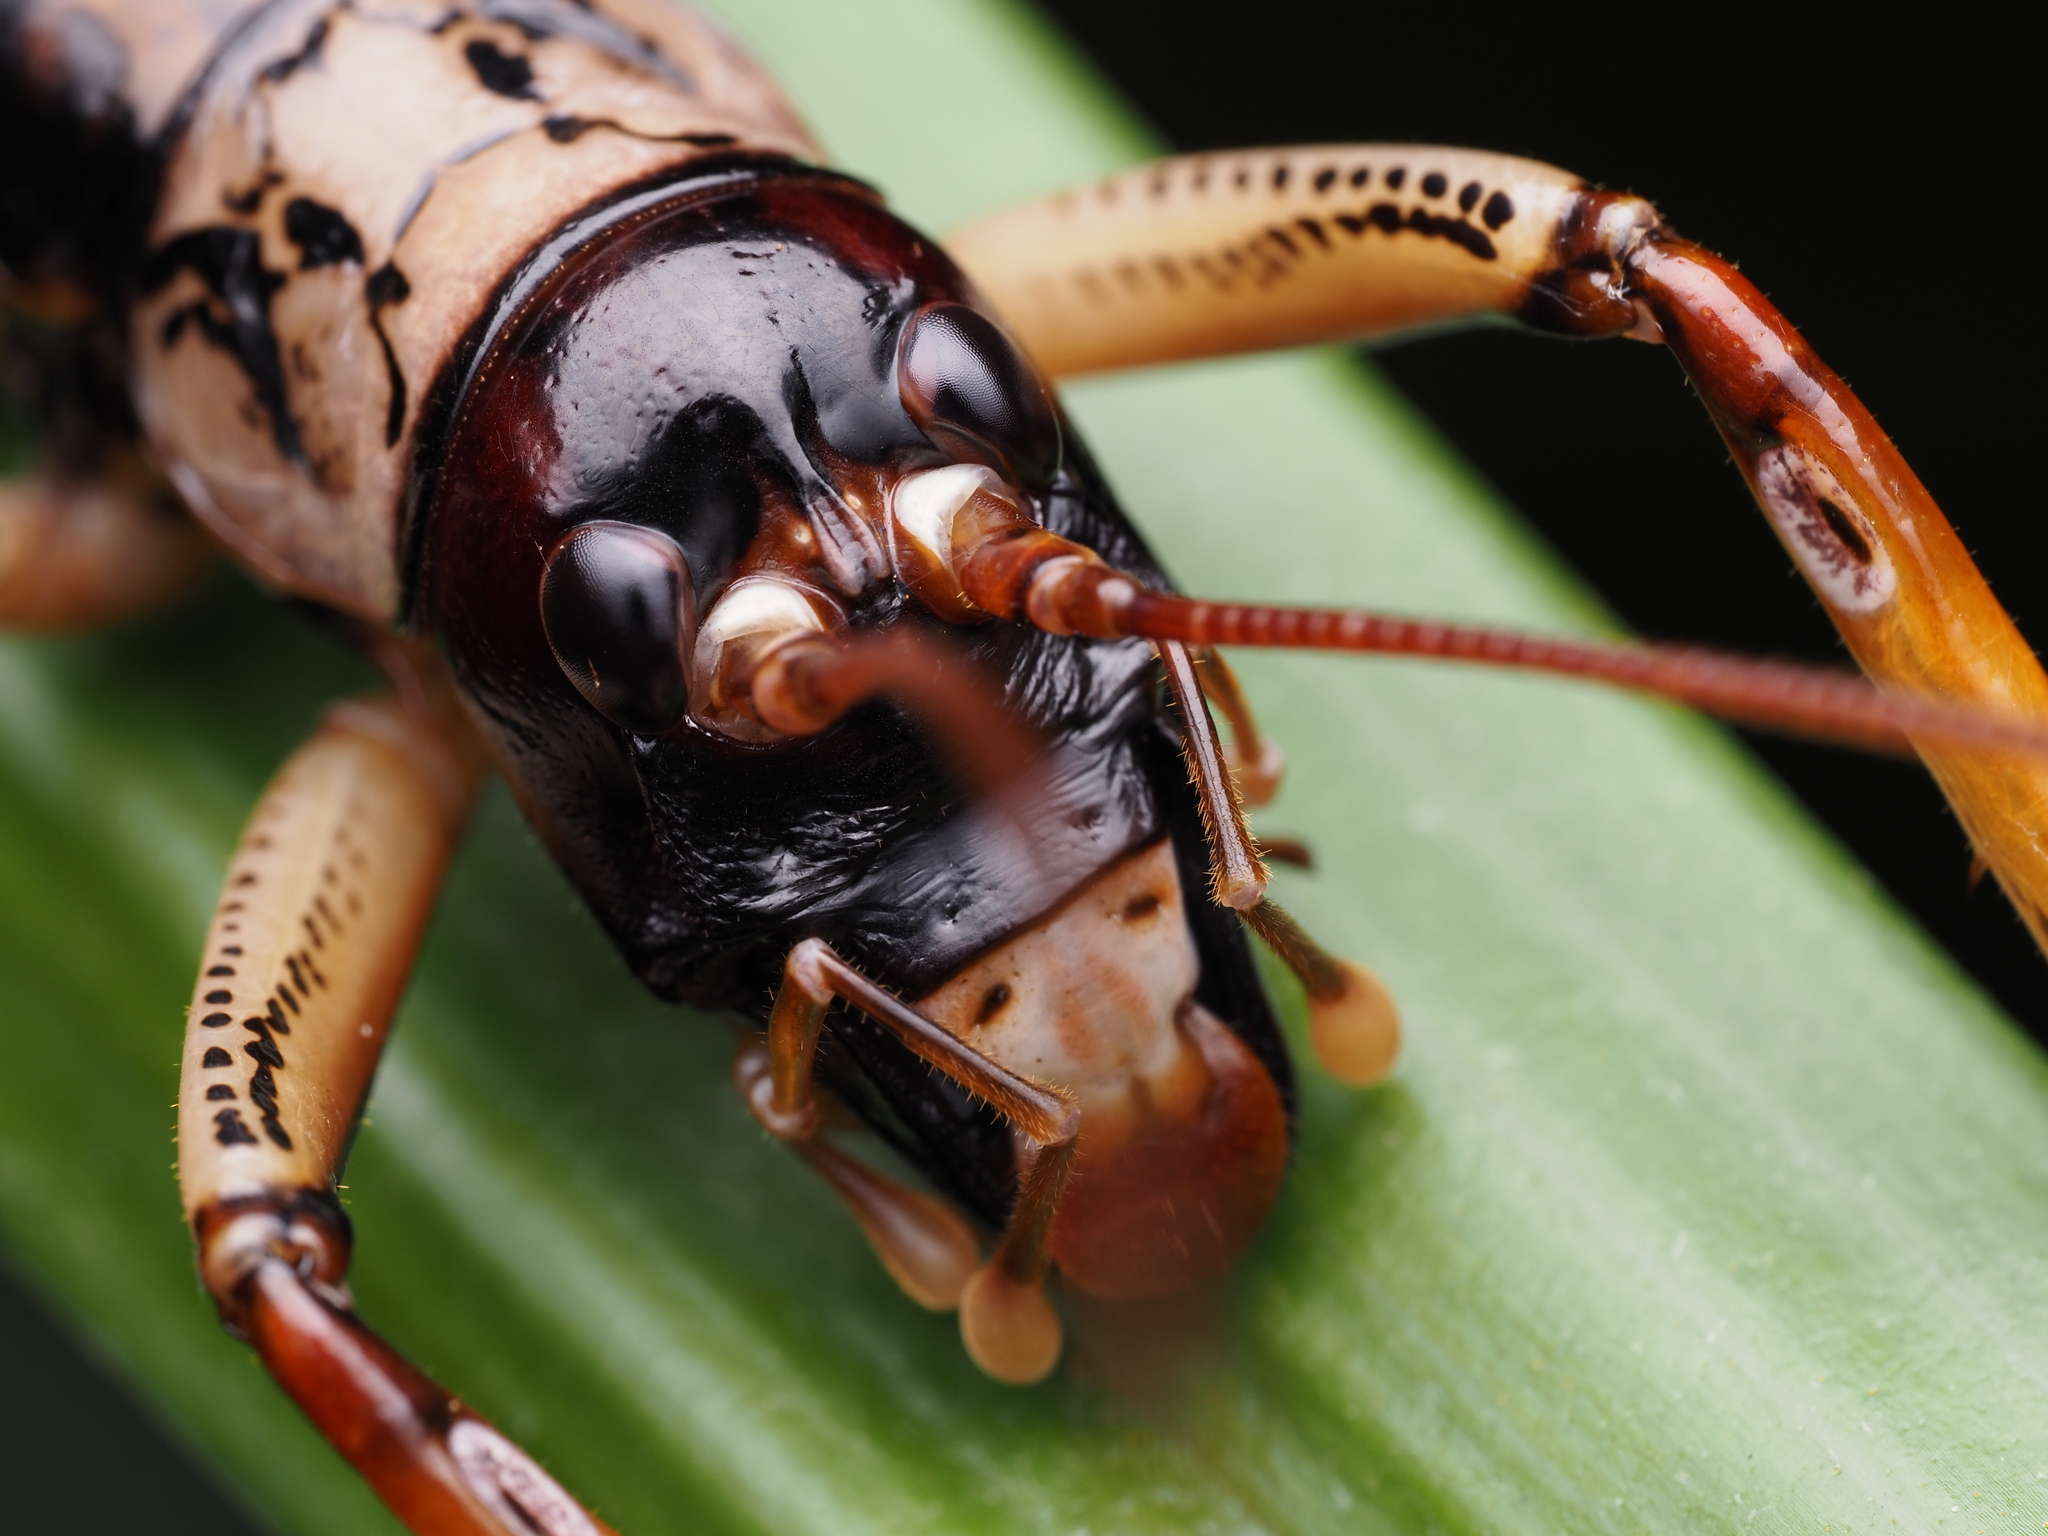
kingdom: Animalia
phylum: Arthropoda
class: Insecta
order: Orthoptera
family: Anostostomatidae
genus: Hemideina
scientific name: Hemideina thoracica
